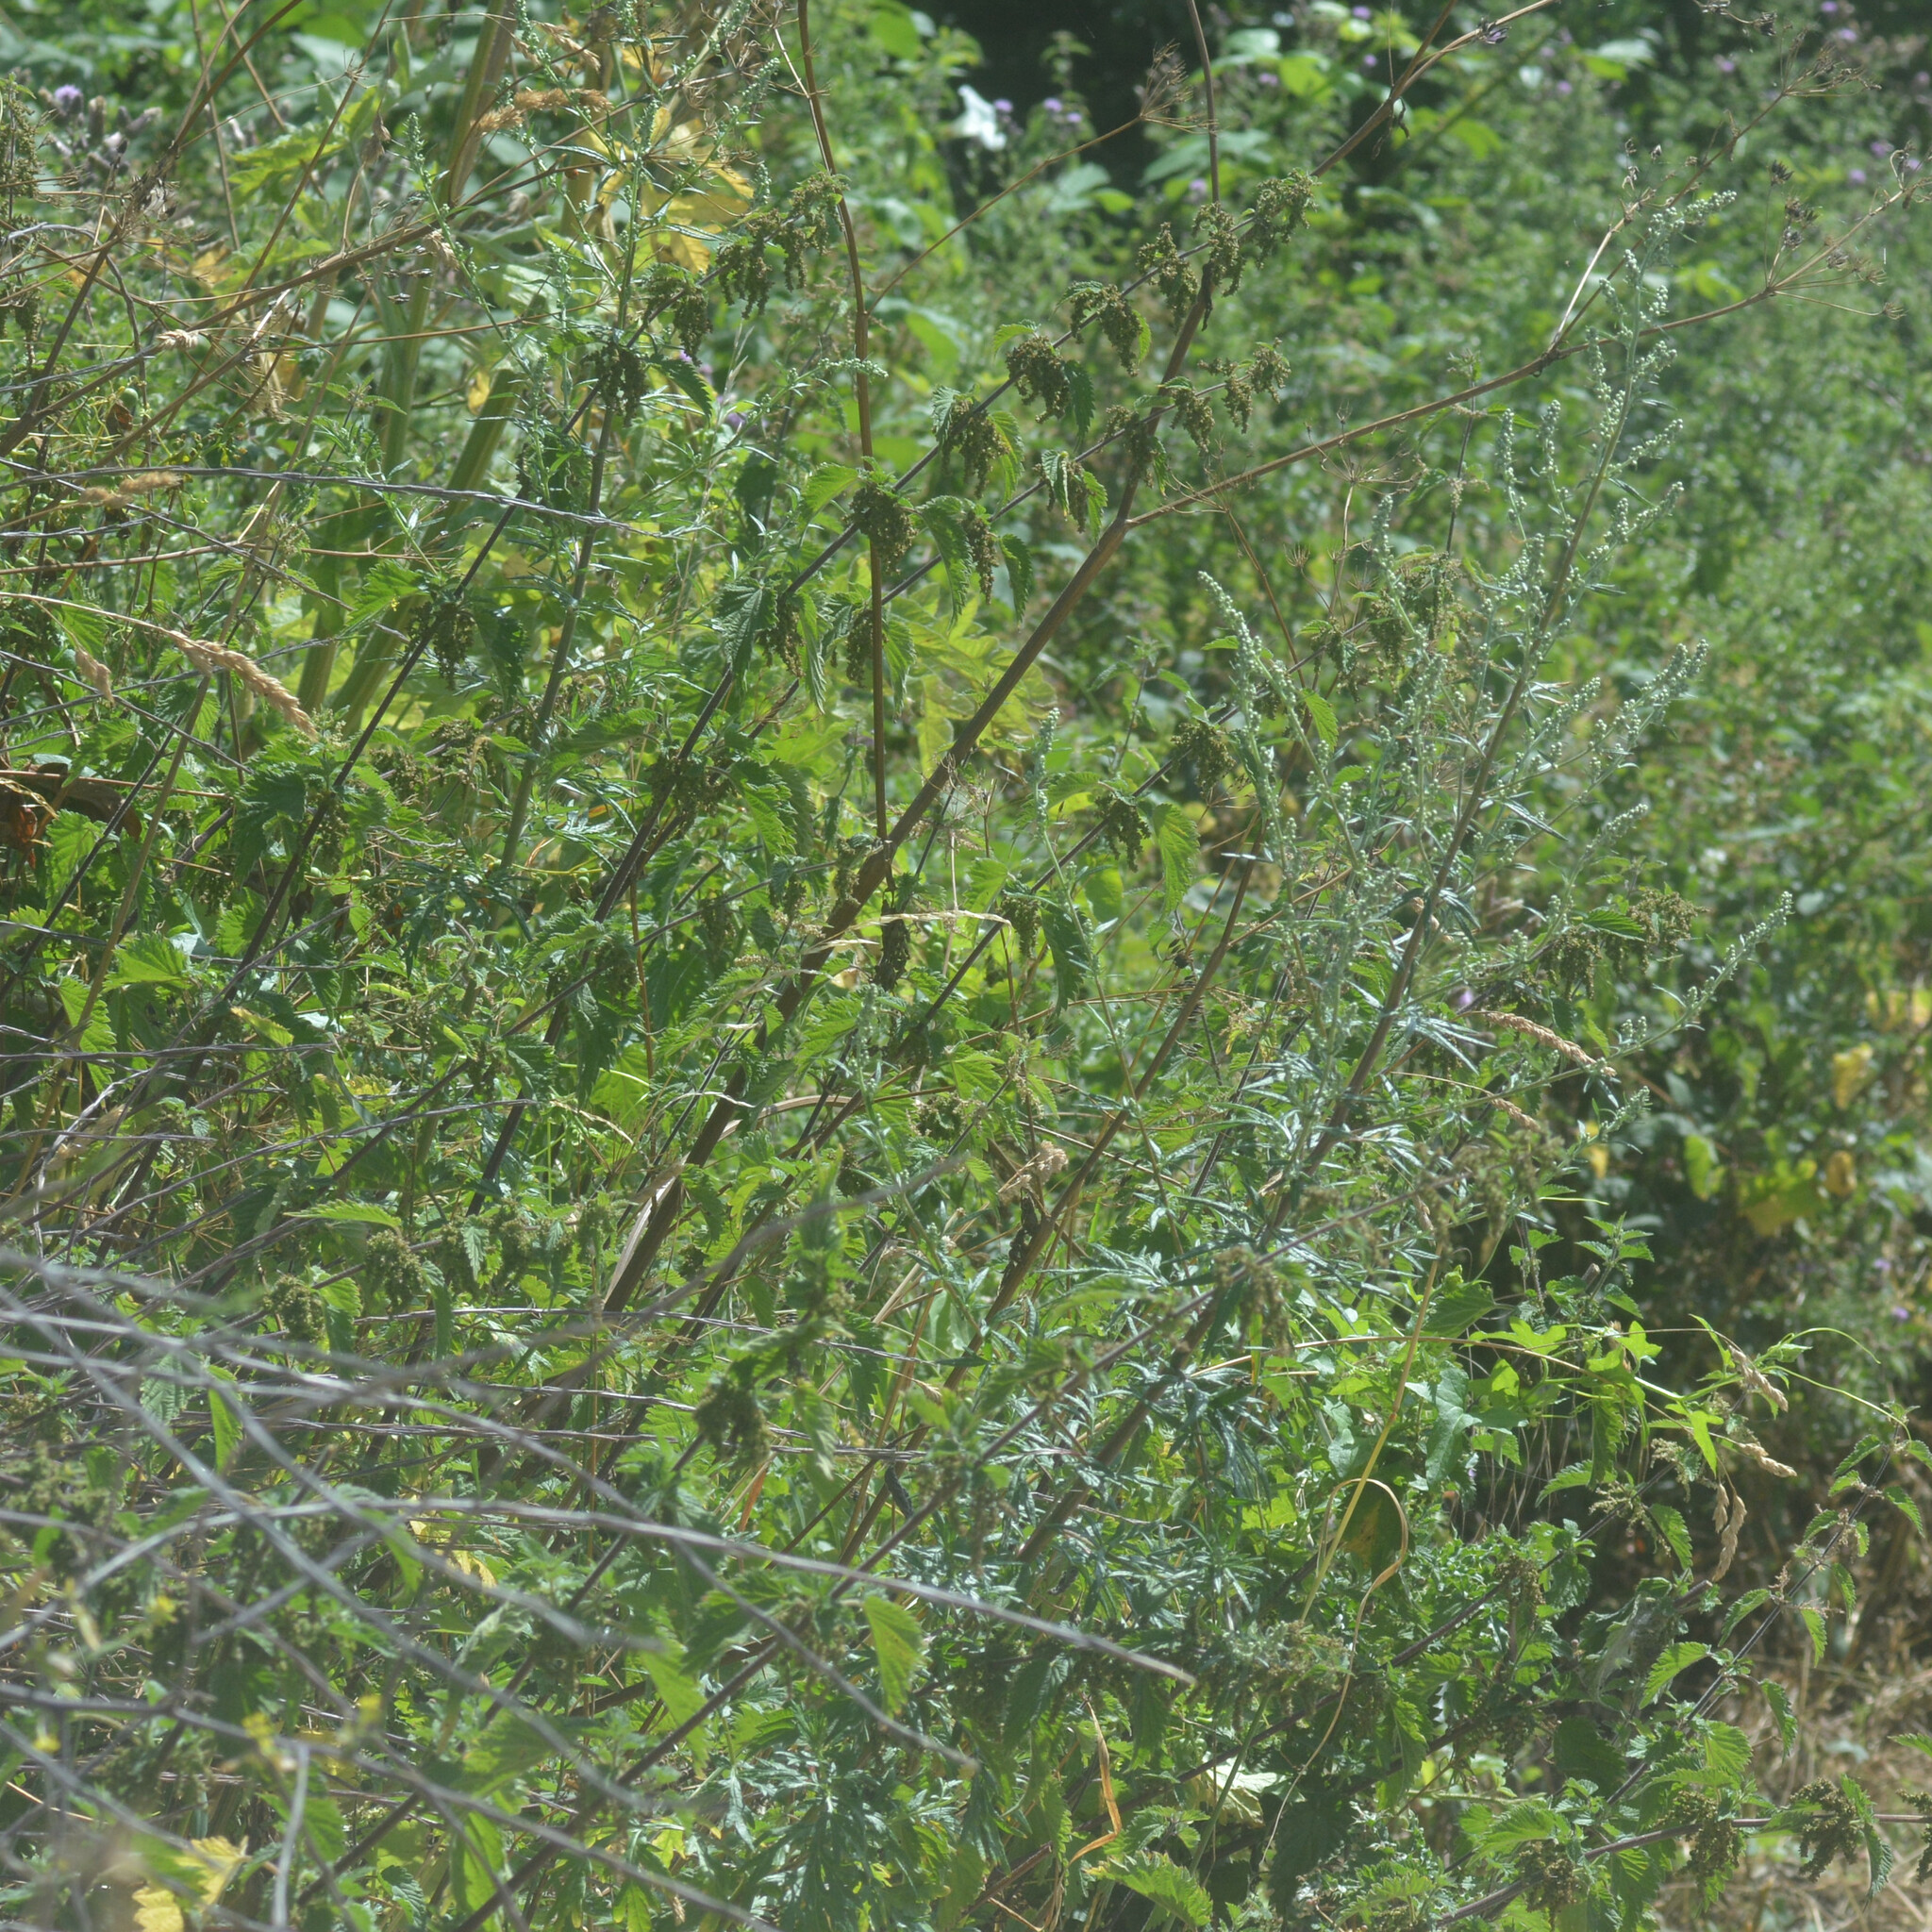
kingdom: Plantae
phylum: Tracheophyta
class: Magnoliopsida
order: Asterales
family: Asteraceae
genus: Artemisia
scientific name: Artemisia vulgaris
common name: Mugwort
